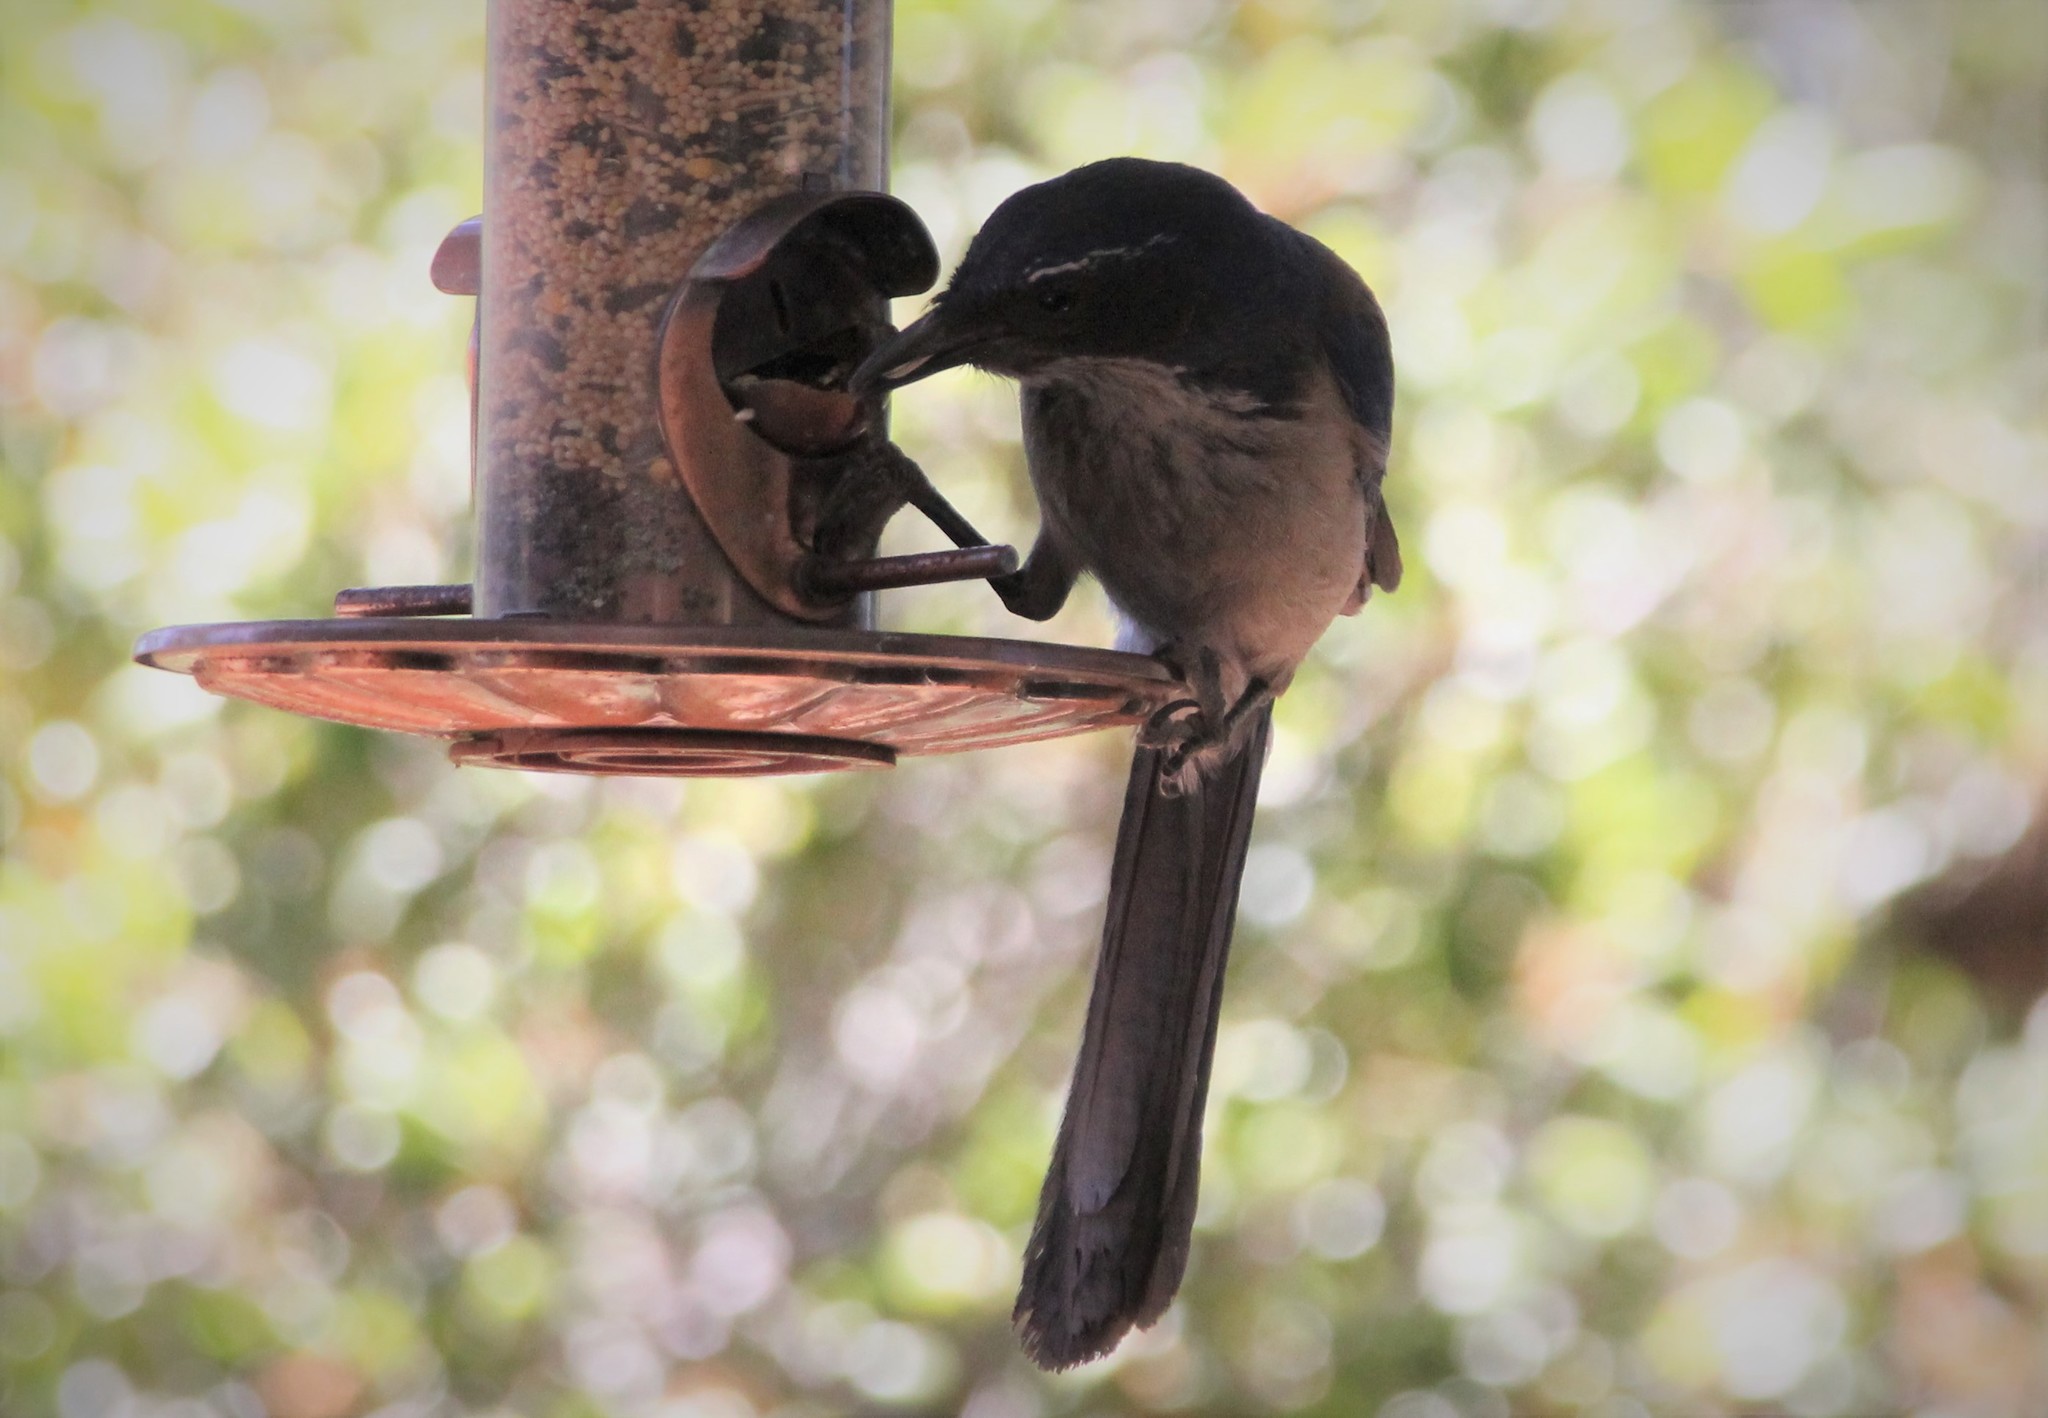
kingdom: Animalia
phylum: Chordata
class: Aves
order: Passeriformes
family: Corvidae
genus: Aphelocoma
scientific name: Aphelocoma californica
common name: California scrub-jay
